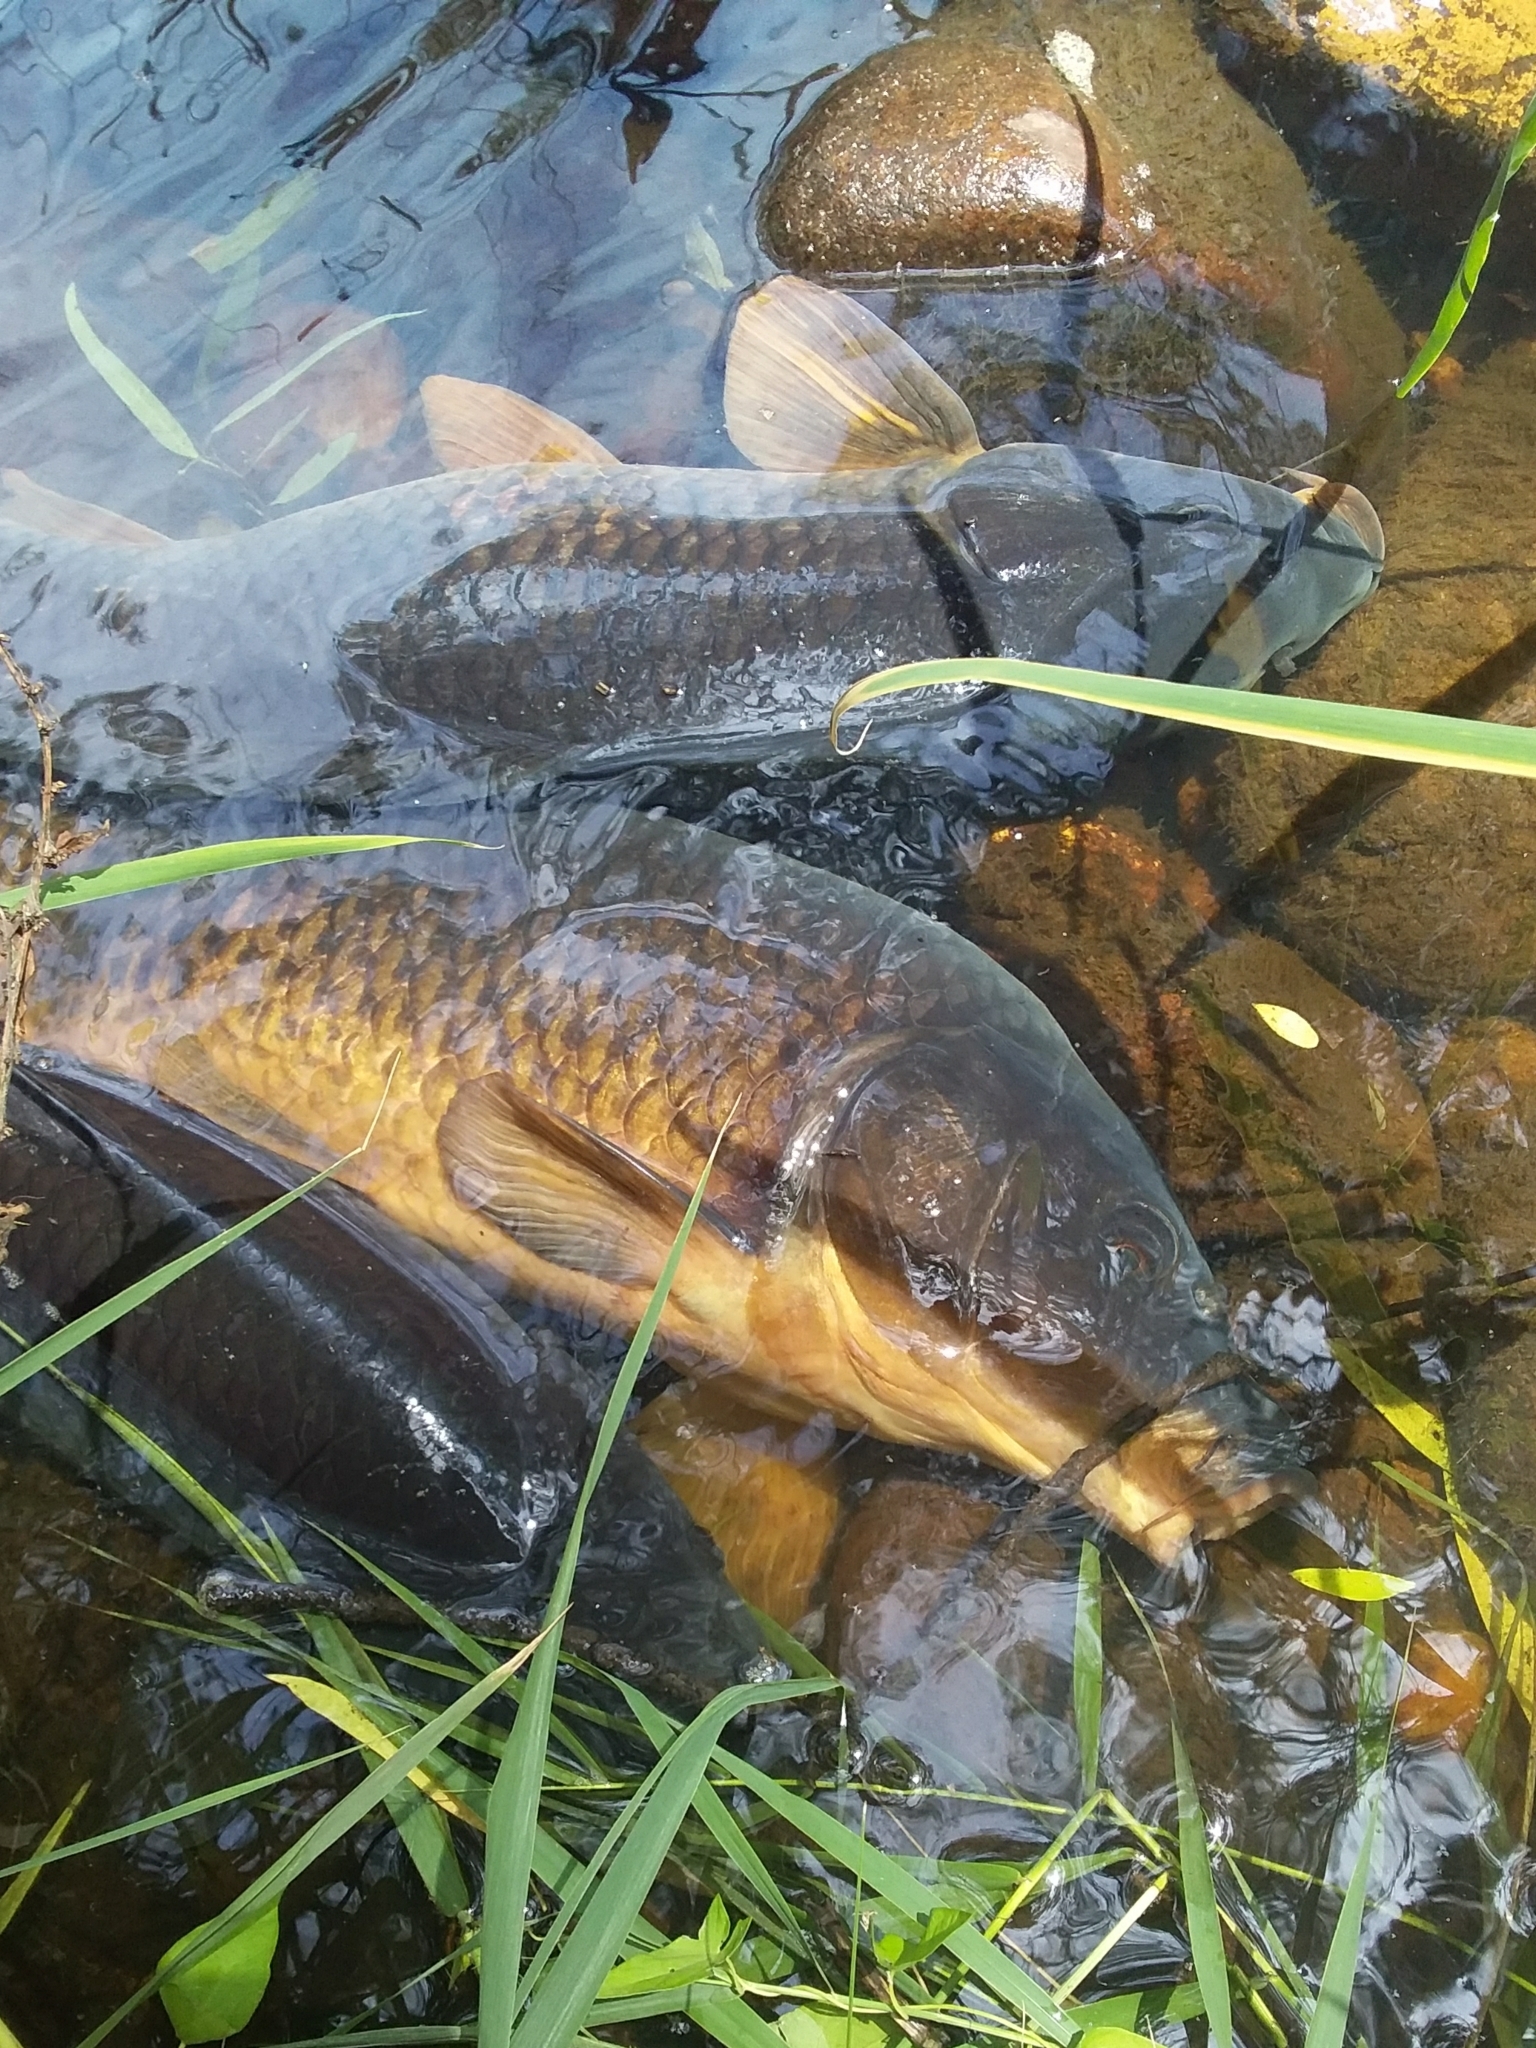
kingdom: Animalia
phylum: Chordata
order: Cypriniformes
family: Cyprinidae
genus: Cyprinus
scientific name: Cyprinus carpio
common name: Common carp
